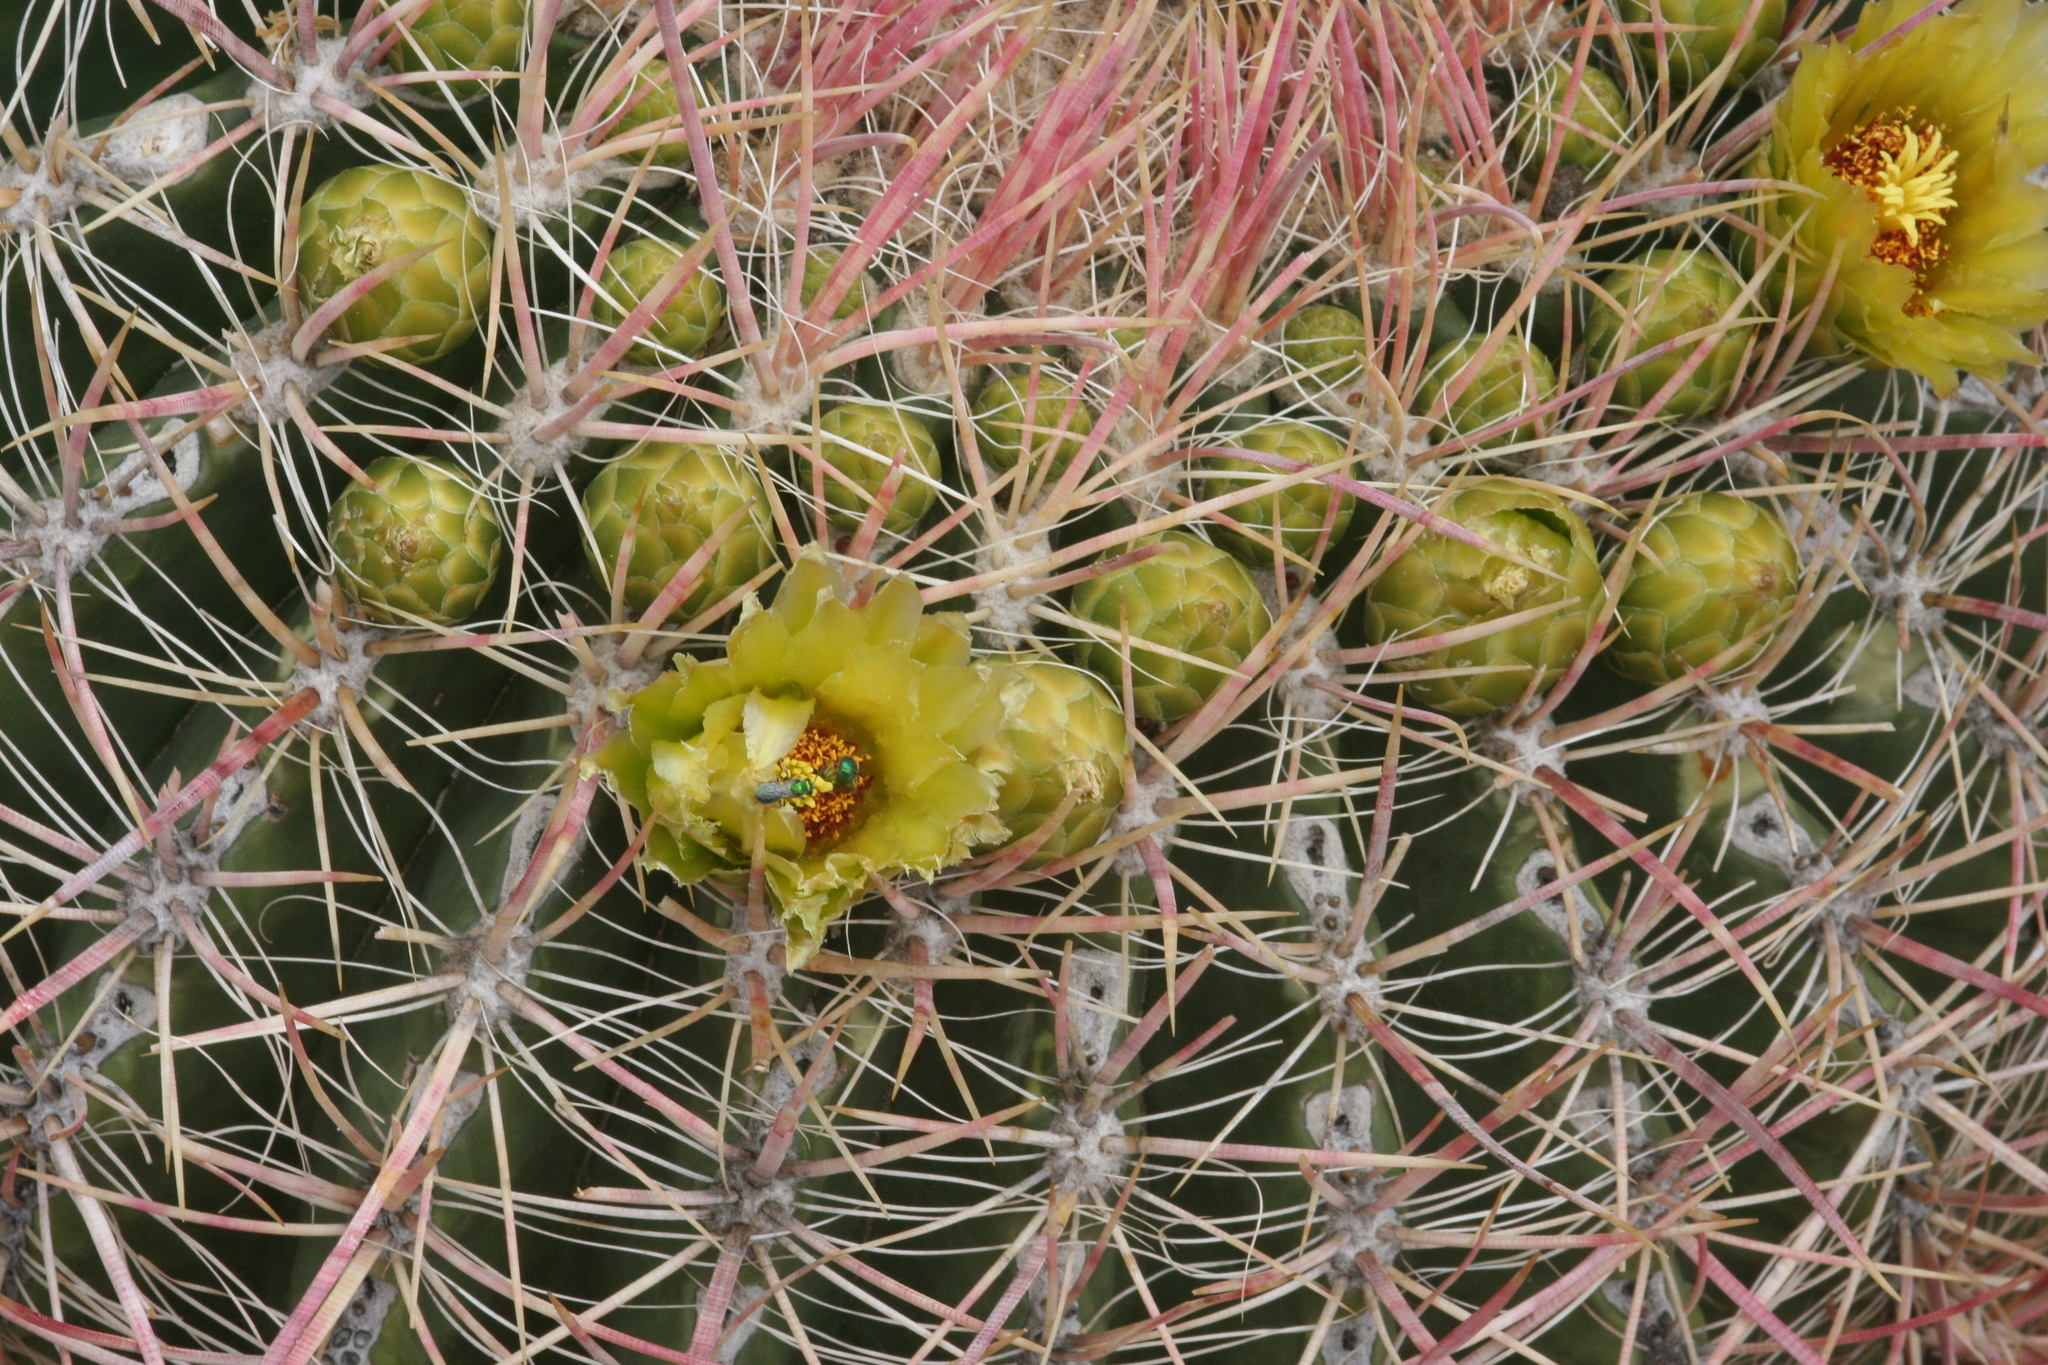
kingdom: Plantae
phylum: Tracheophyta
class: Magnoliopsida
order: Caryophyllales
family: Cactaceae
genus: Ferocactus
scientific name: Ferocactus cylindraceus
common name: California barrel cactus
